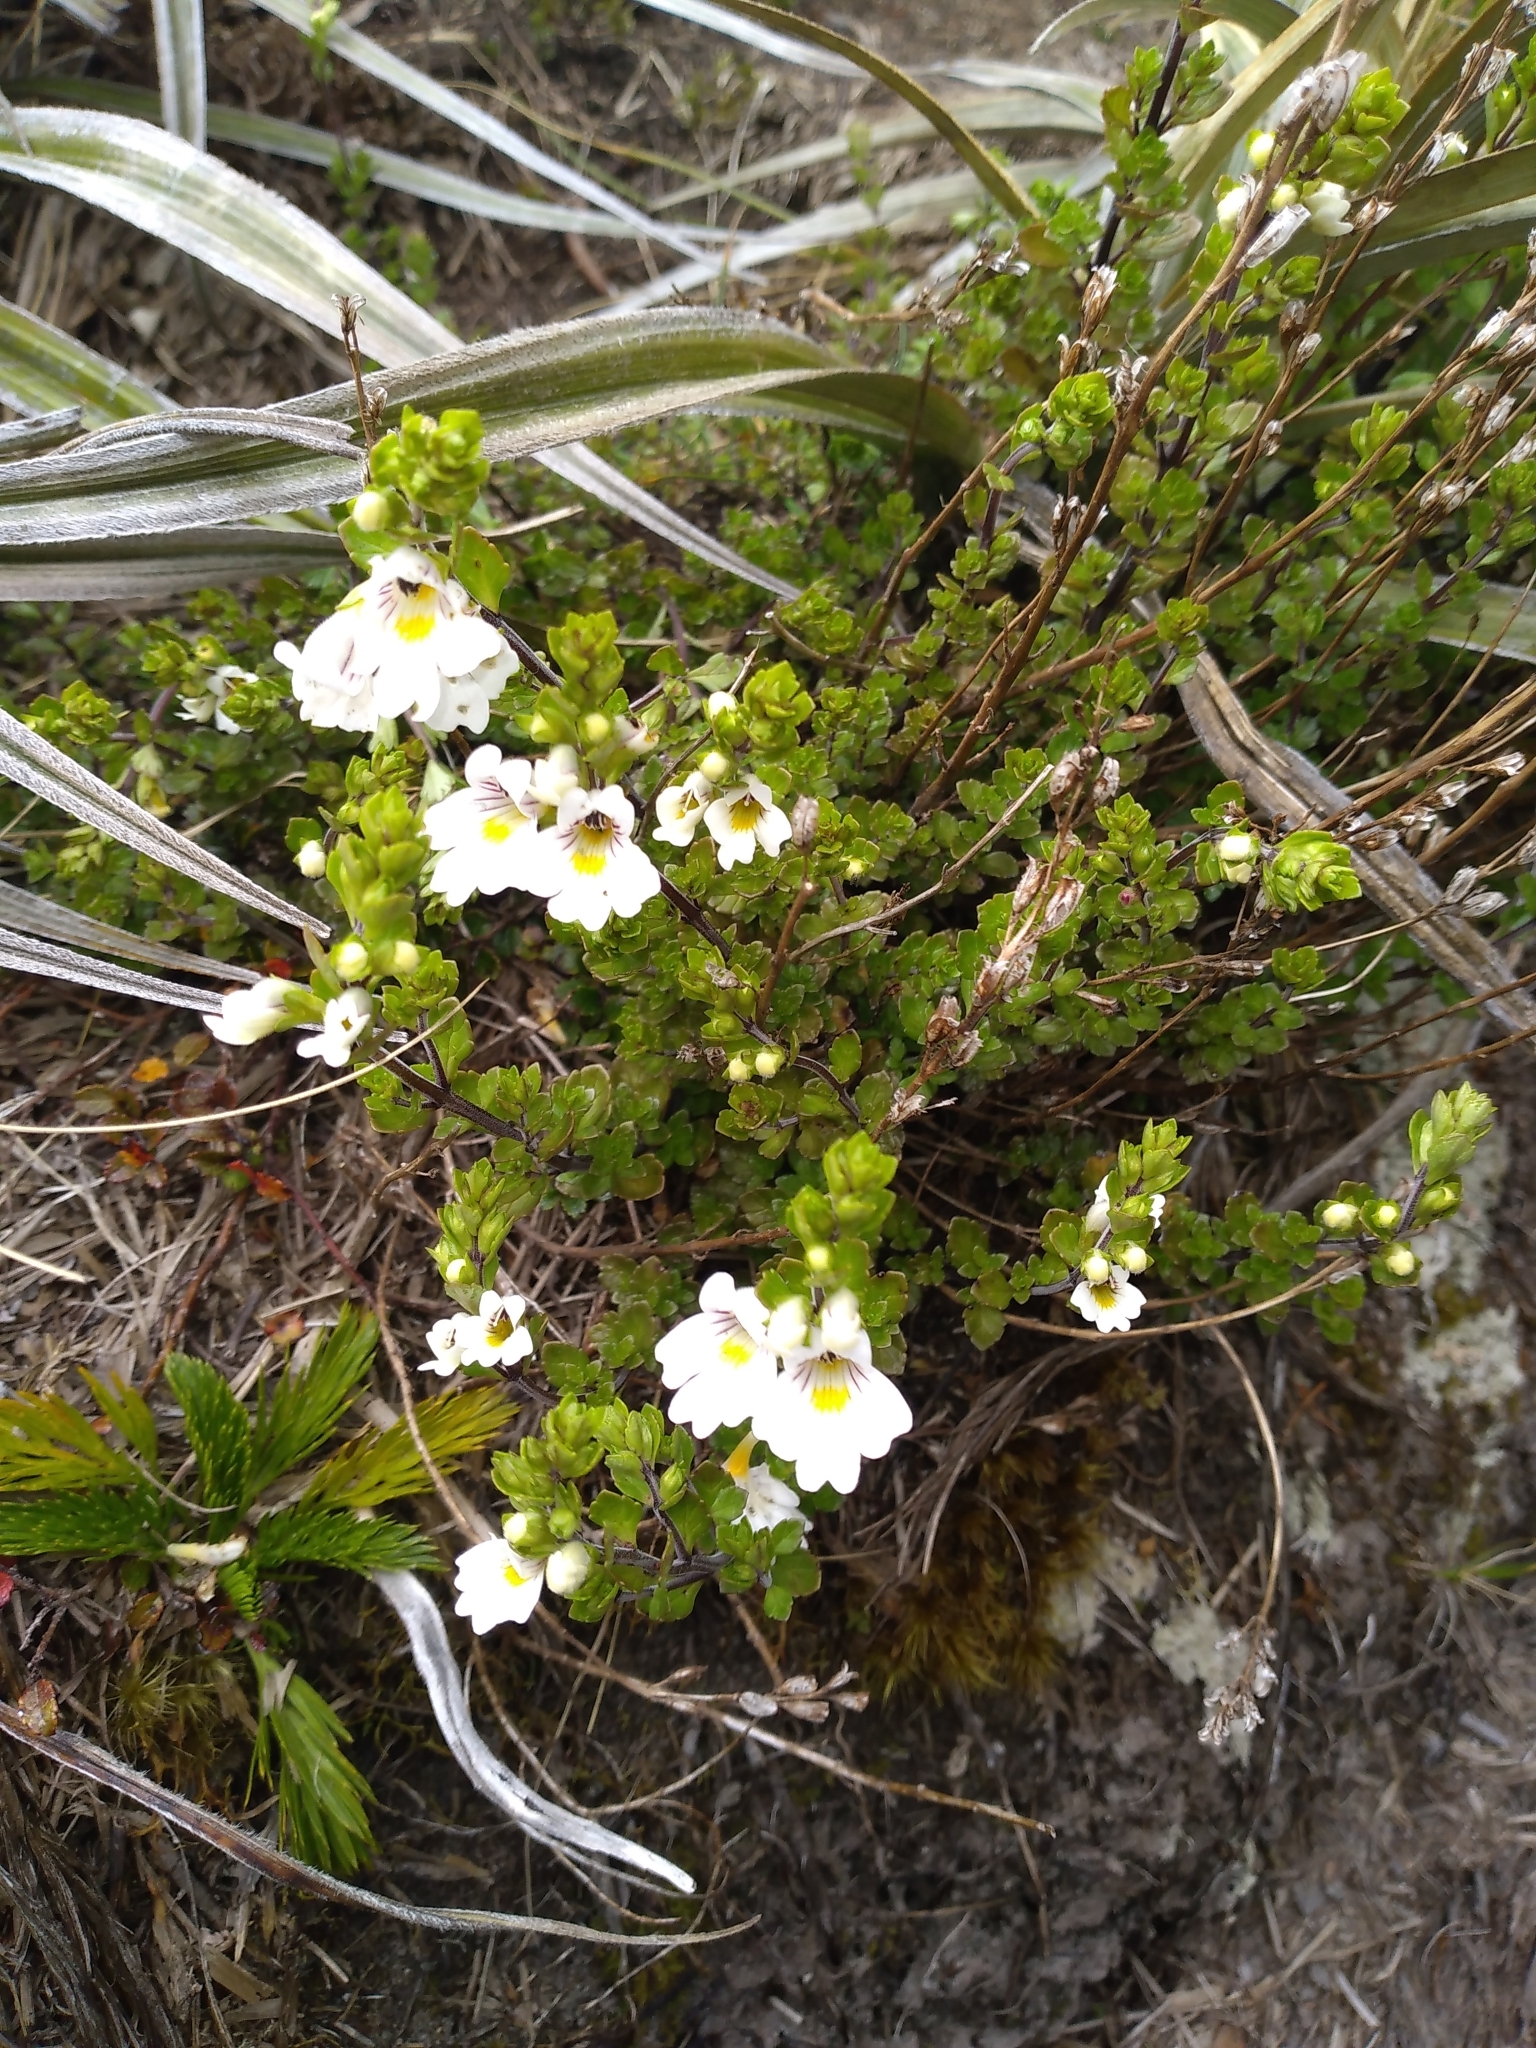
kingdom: Plantae
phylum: Tracheophyta
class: Magnoliopsida
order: Lamiales
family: Orobanchaceae
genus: Euphrasia
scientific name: Euphrasia cuneata
